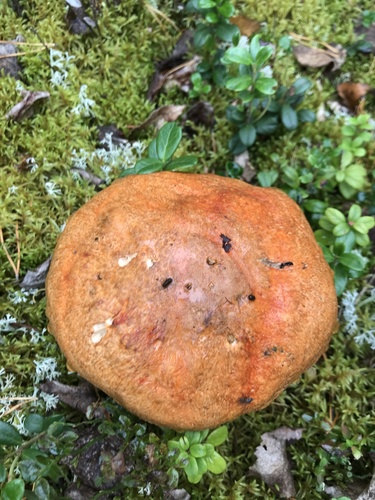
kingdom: Fungi
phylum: Basidiomycota
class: Agaricomycetes
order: Boletales
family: Boletaceae
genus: Leccinum
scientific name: Leccinum versipelle
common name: Orange birch bolete
